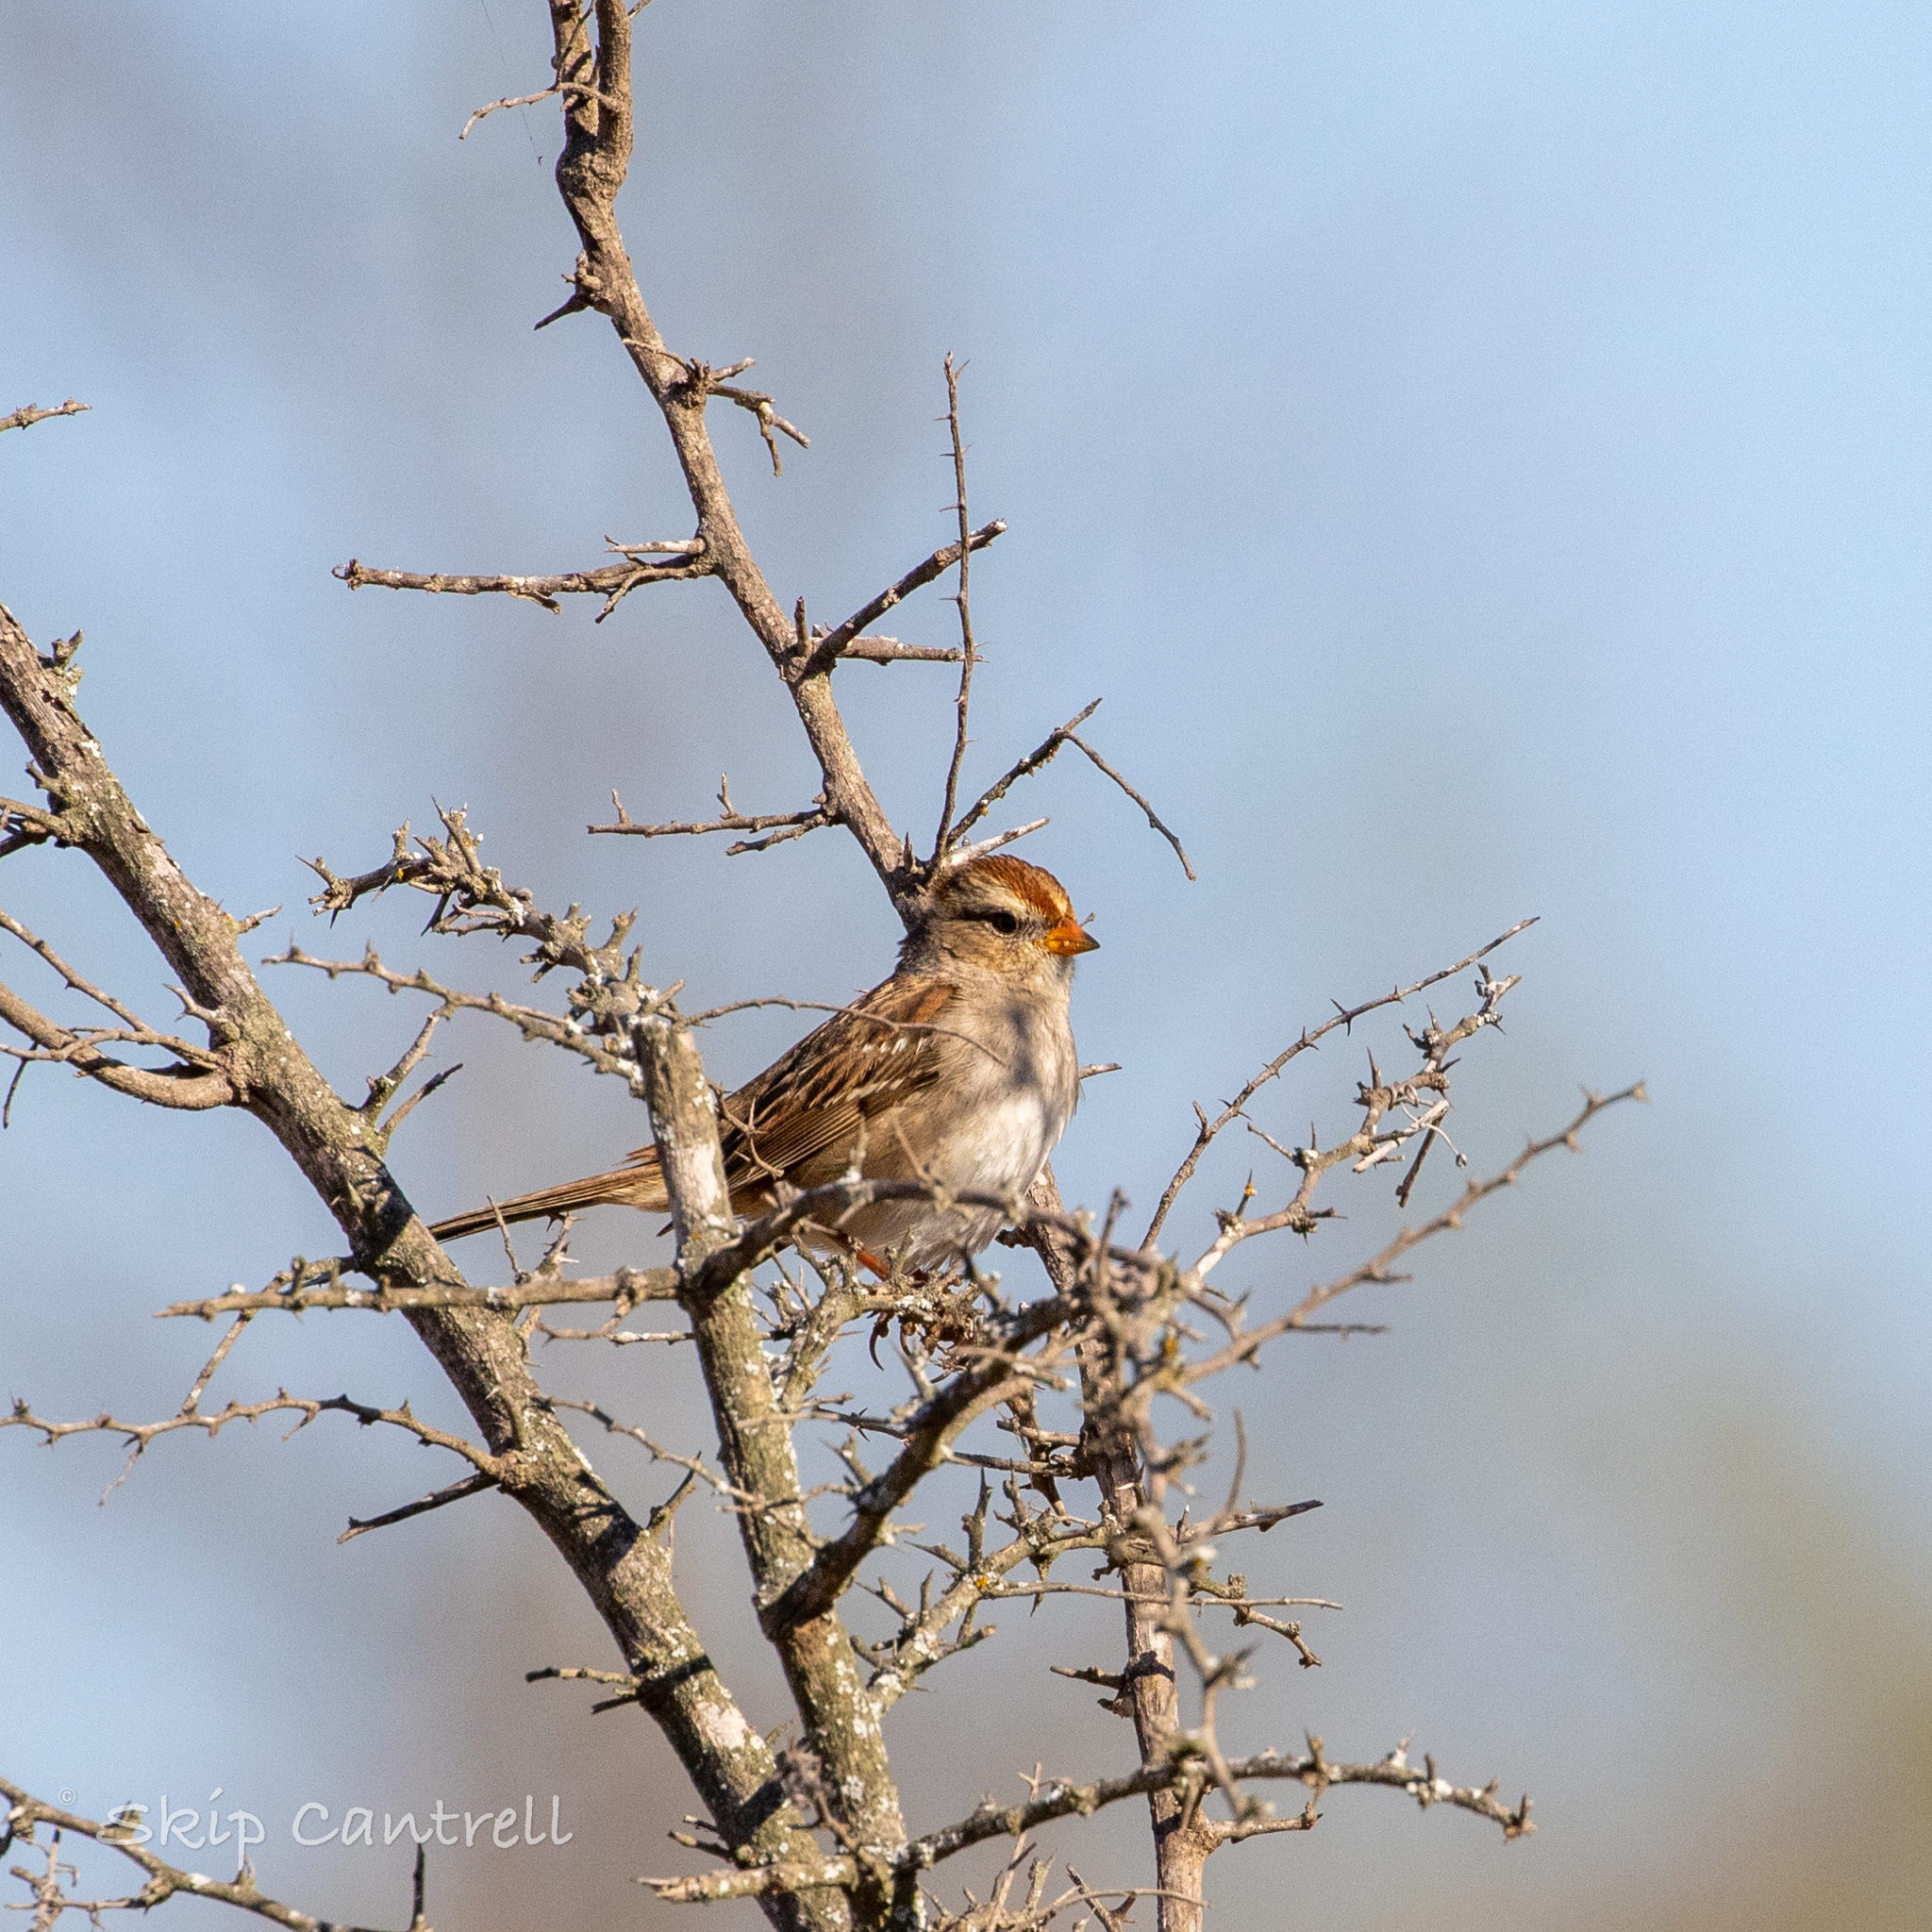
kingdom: Animalia
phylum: Chordata
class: Aves
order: Passeriformes
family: Passerellidae
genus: Zonotrichia
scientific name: Zonotrichia leucophrys
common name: White-crowned sparrow
